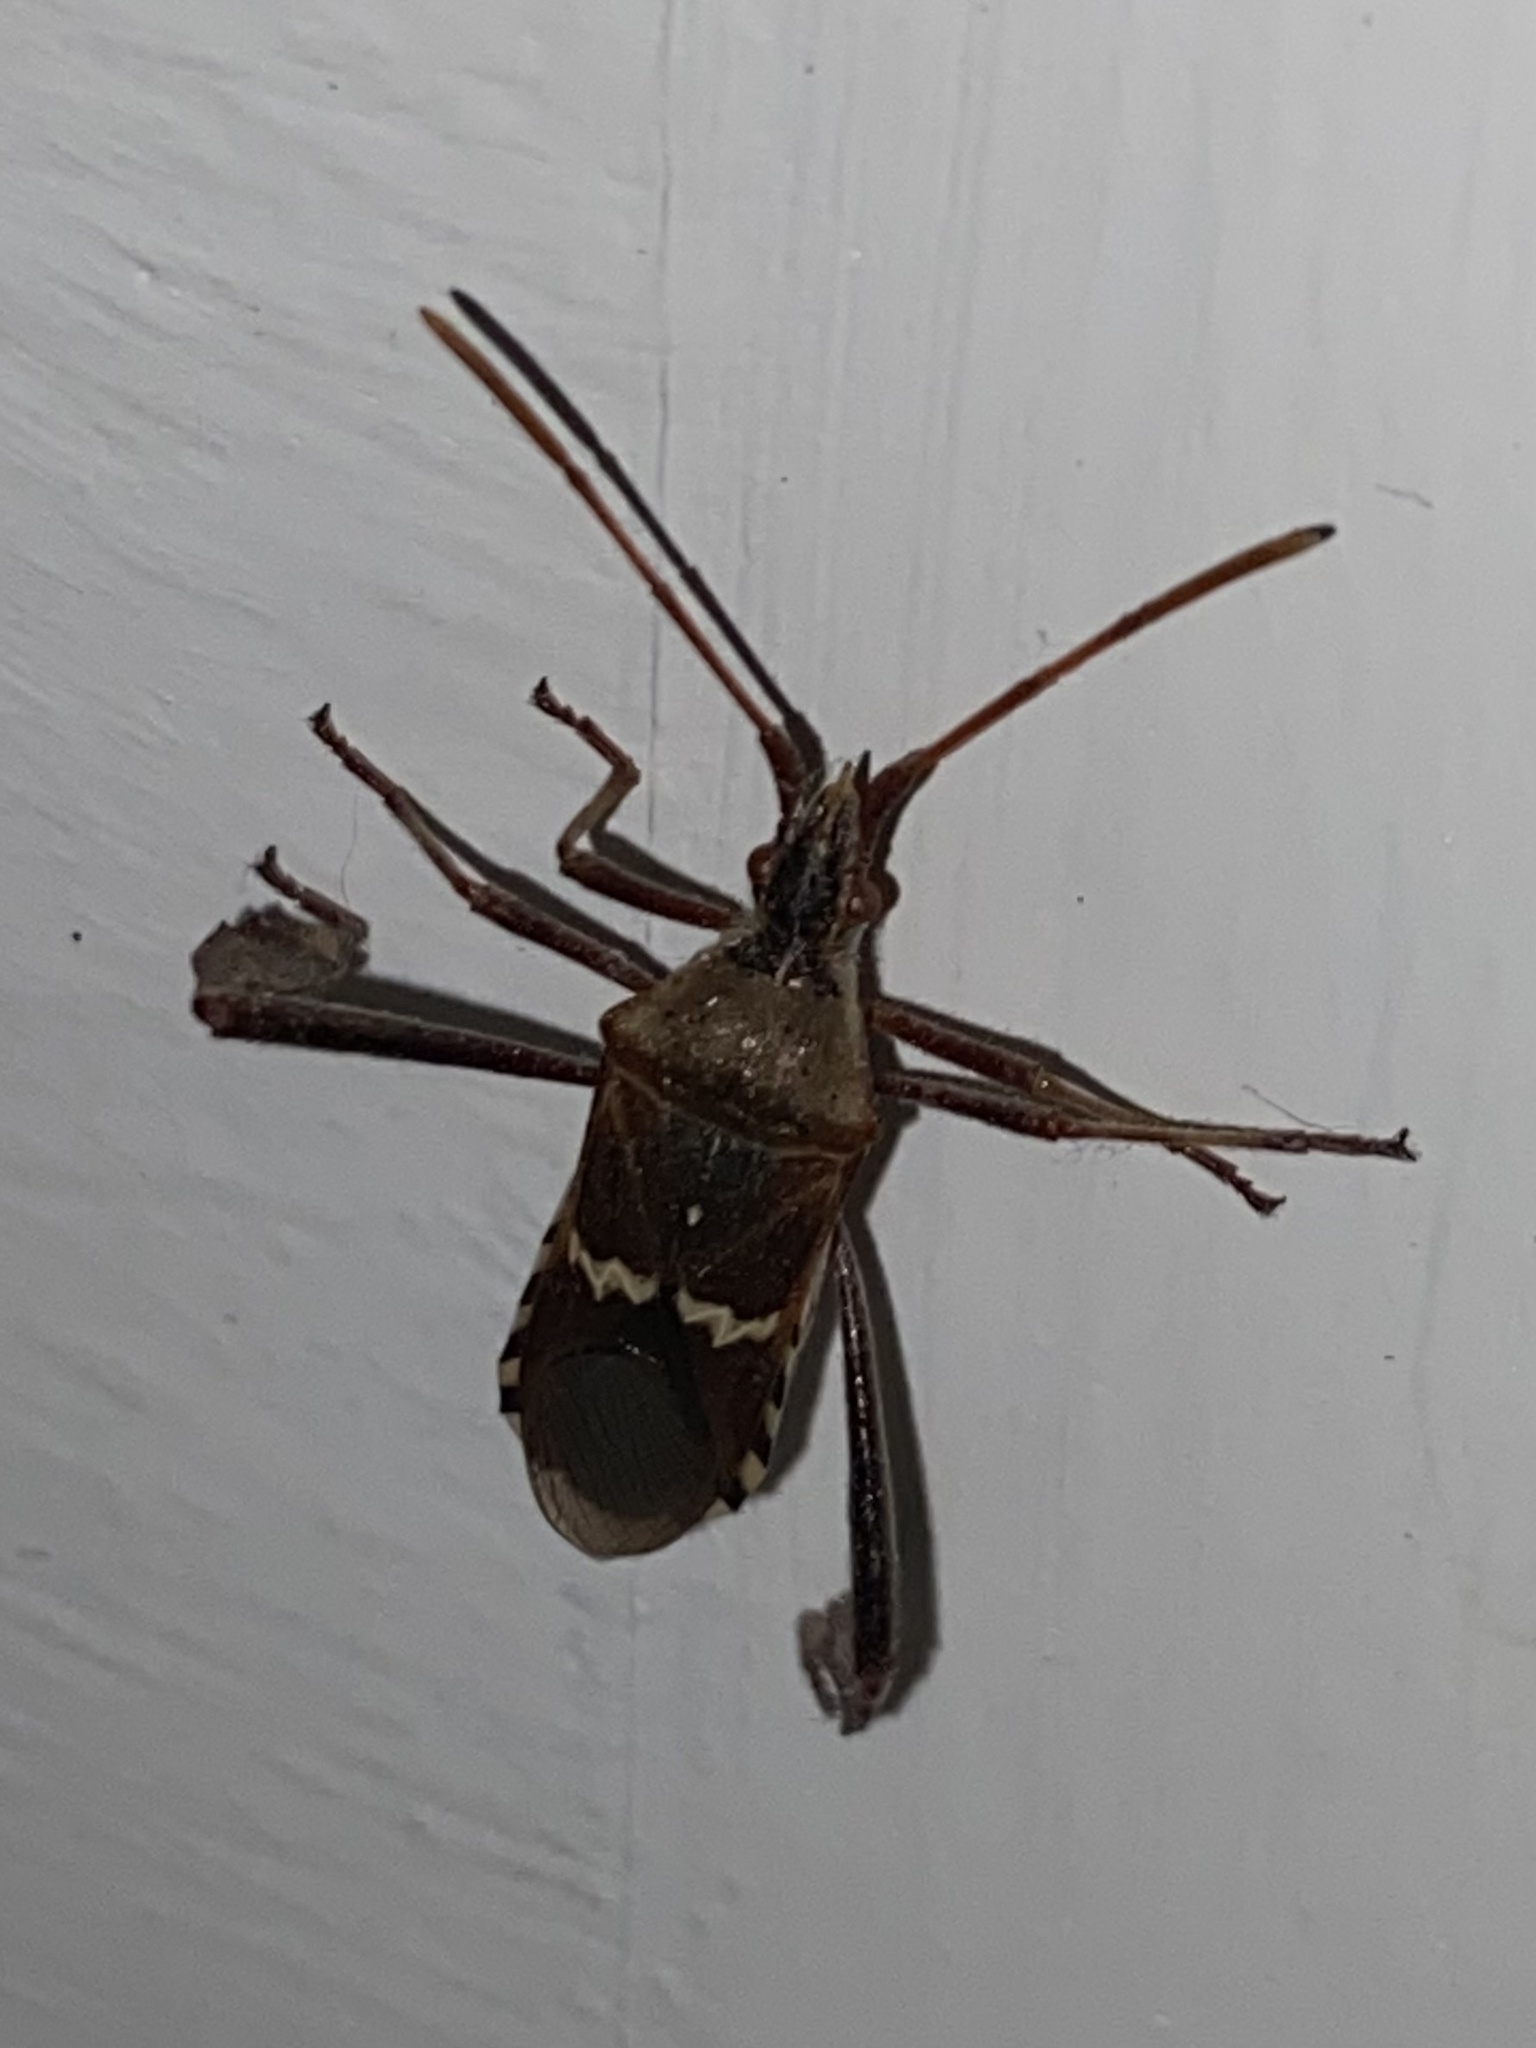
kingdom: Animalia
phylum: Arthropoda
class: Insecta
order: Hemiptera
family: Coreidae
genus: Leptoglossus
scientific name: Leptoglossus clypealis
